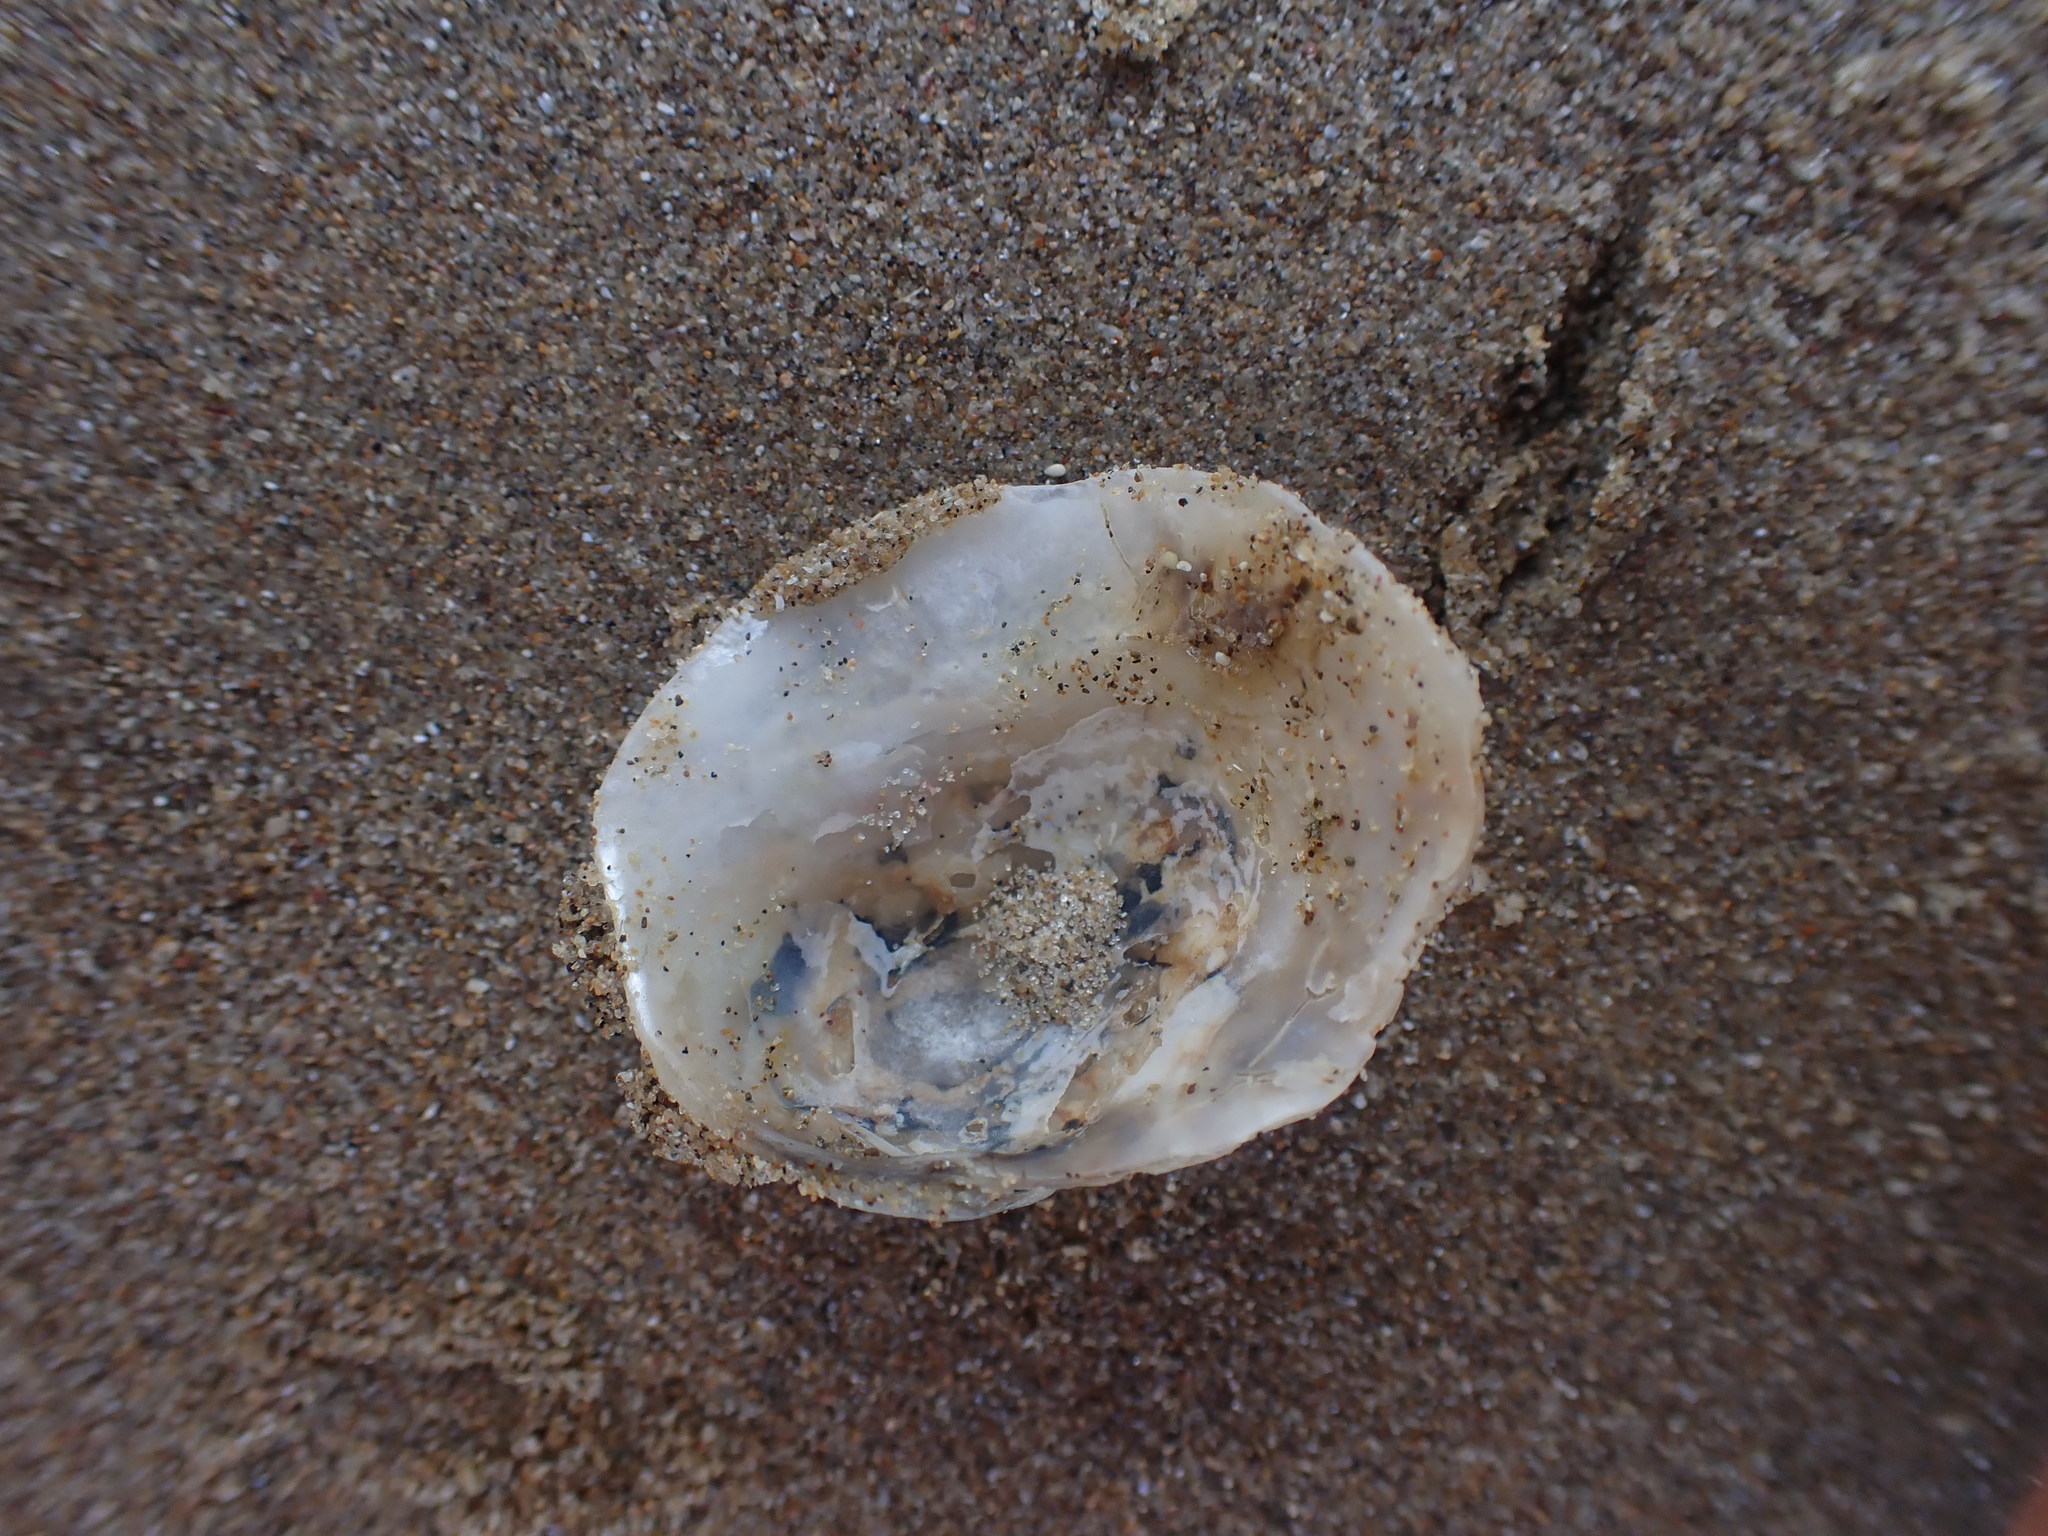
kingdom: Animalia
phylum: Mollusca
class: Bivalvia
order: Pectinida
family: Anomiidae
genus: Monia
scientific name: Monia zelandica
